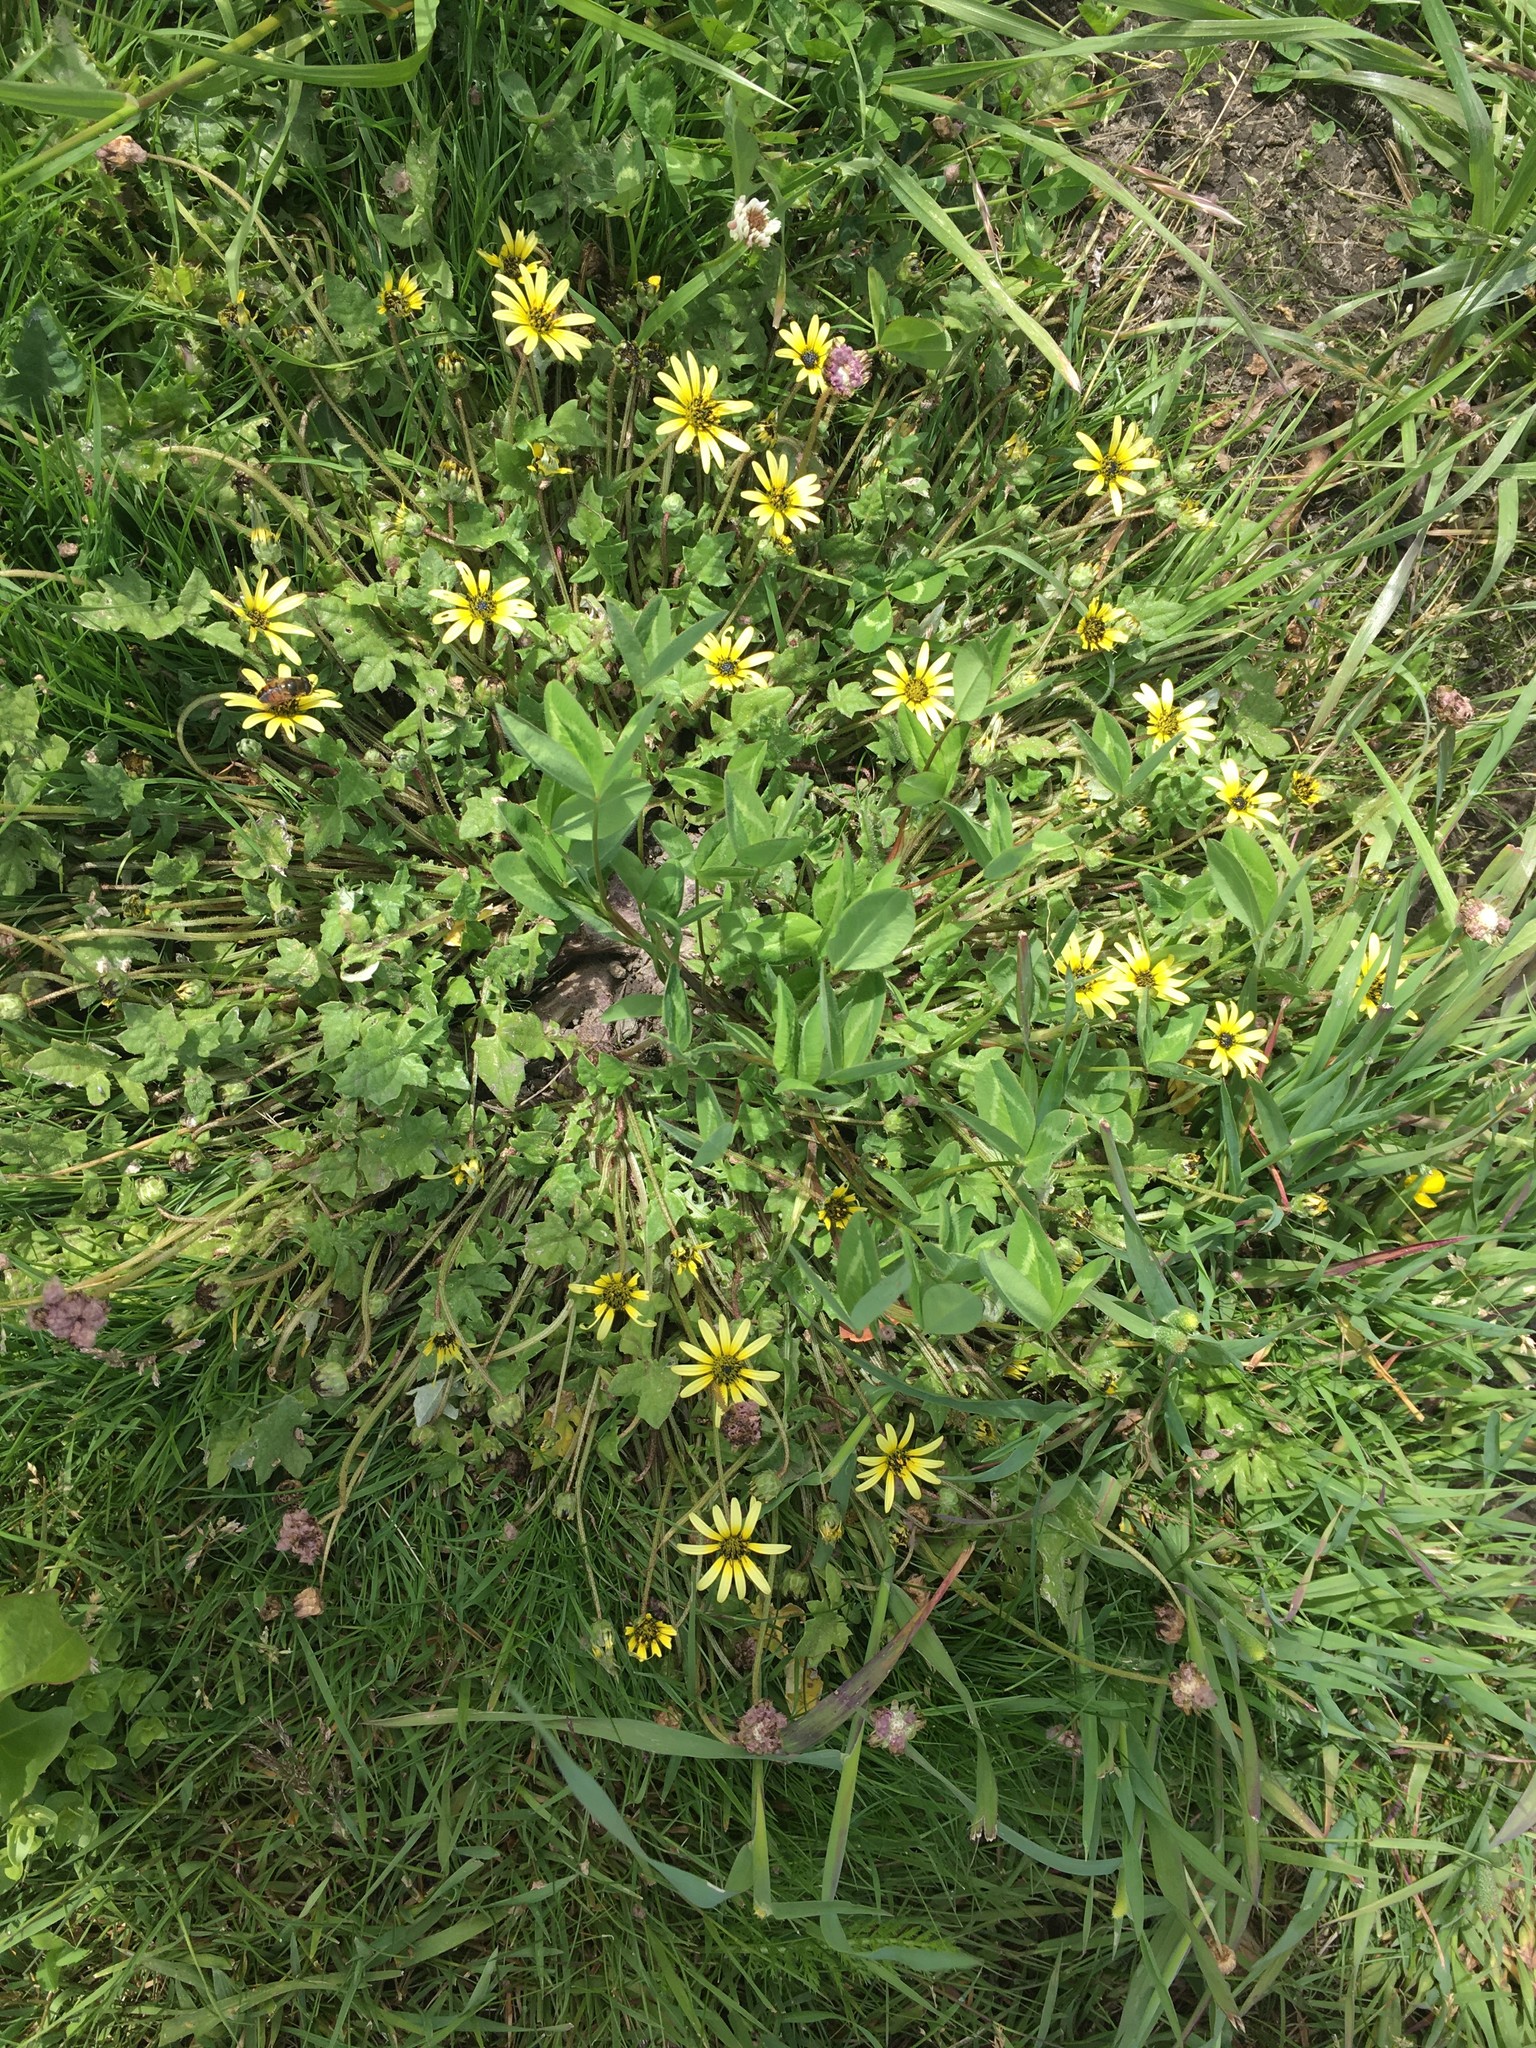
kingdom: Plantae
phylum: Tracheophyta
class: Magnoliopsida
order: Asterales
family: Asteraceae
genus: Arctotheca
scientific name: Arctotheca calendula
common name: Capeweed
